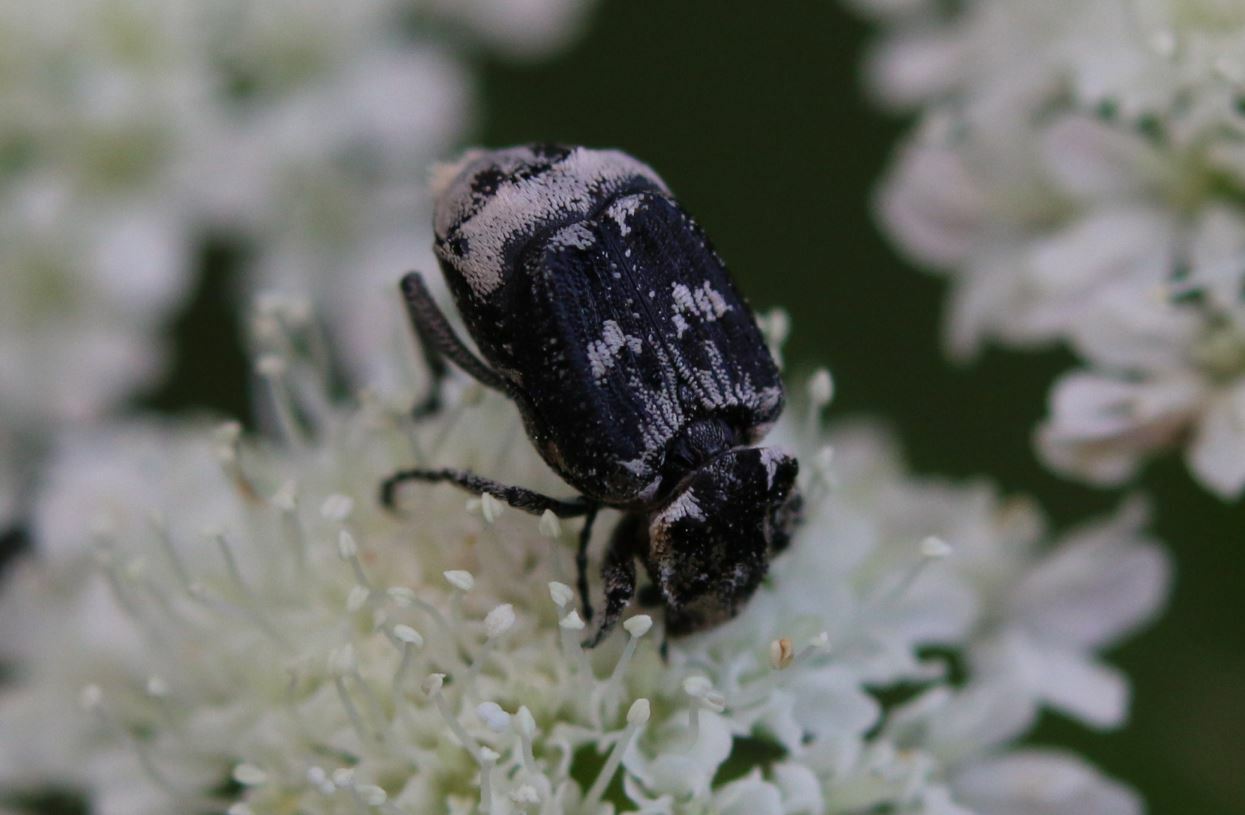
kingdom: Animalia
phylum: Arthropoda
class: Insecta
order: Coleoptera
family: Scarabaeidae
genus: Valgus
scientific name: Valgus hemipterus
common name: Bug flower chafer
